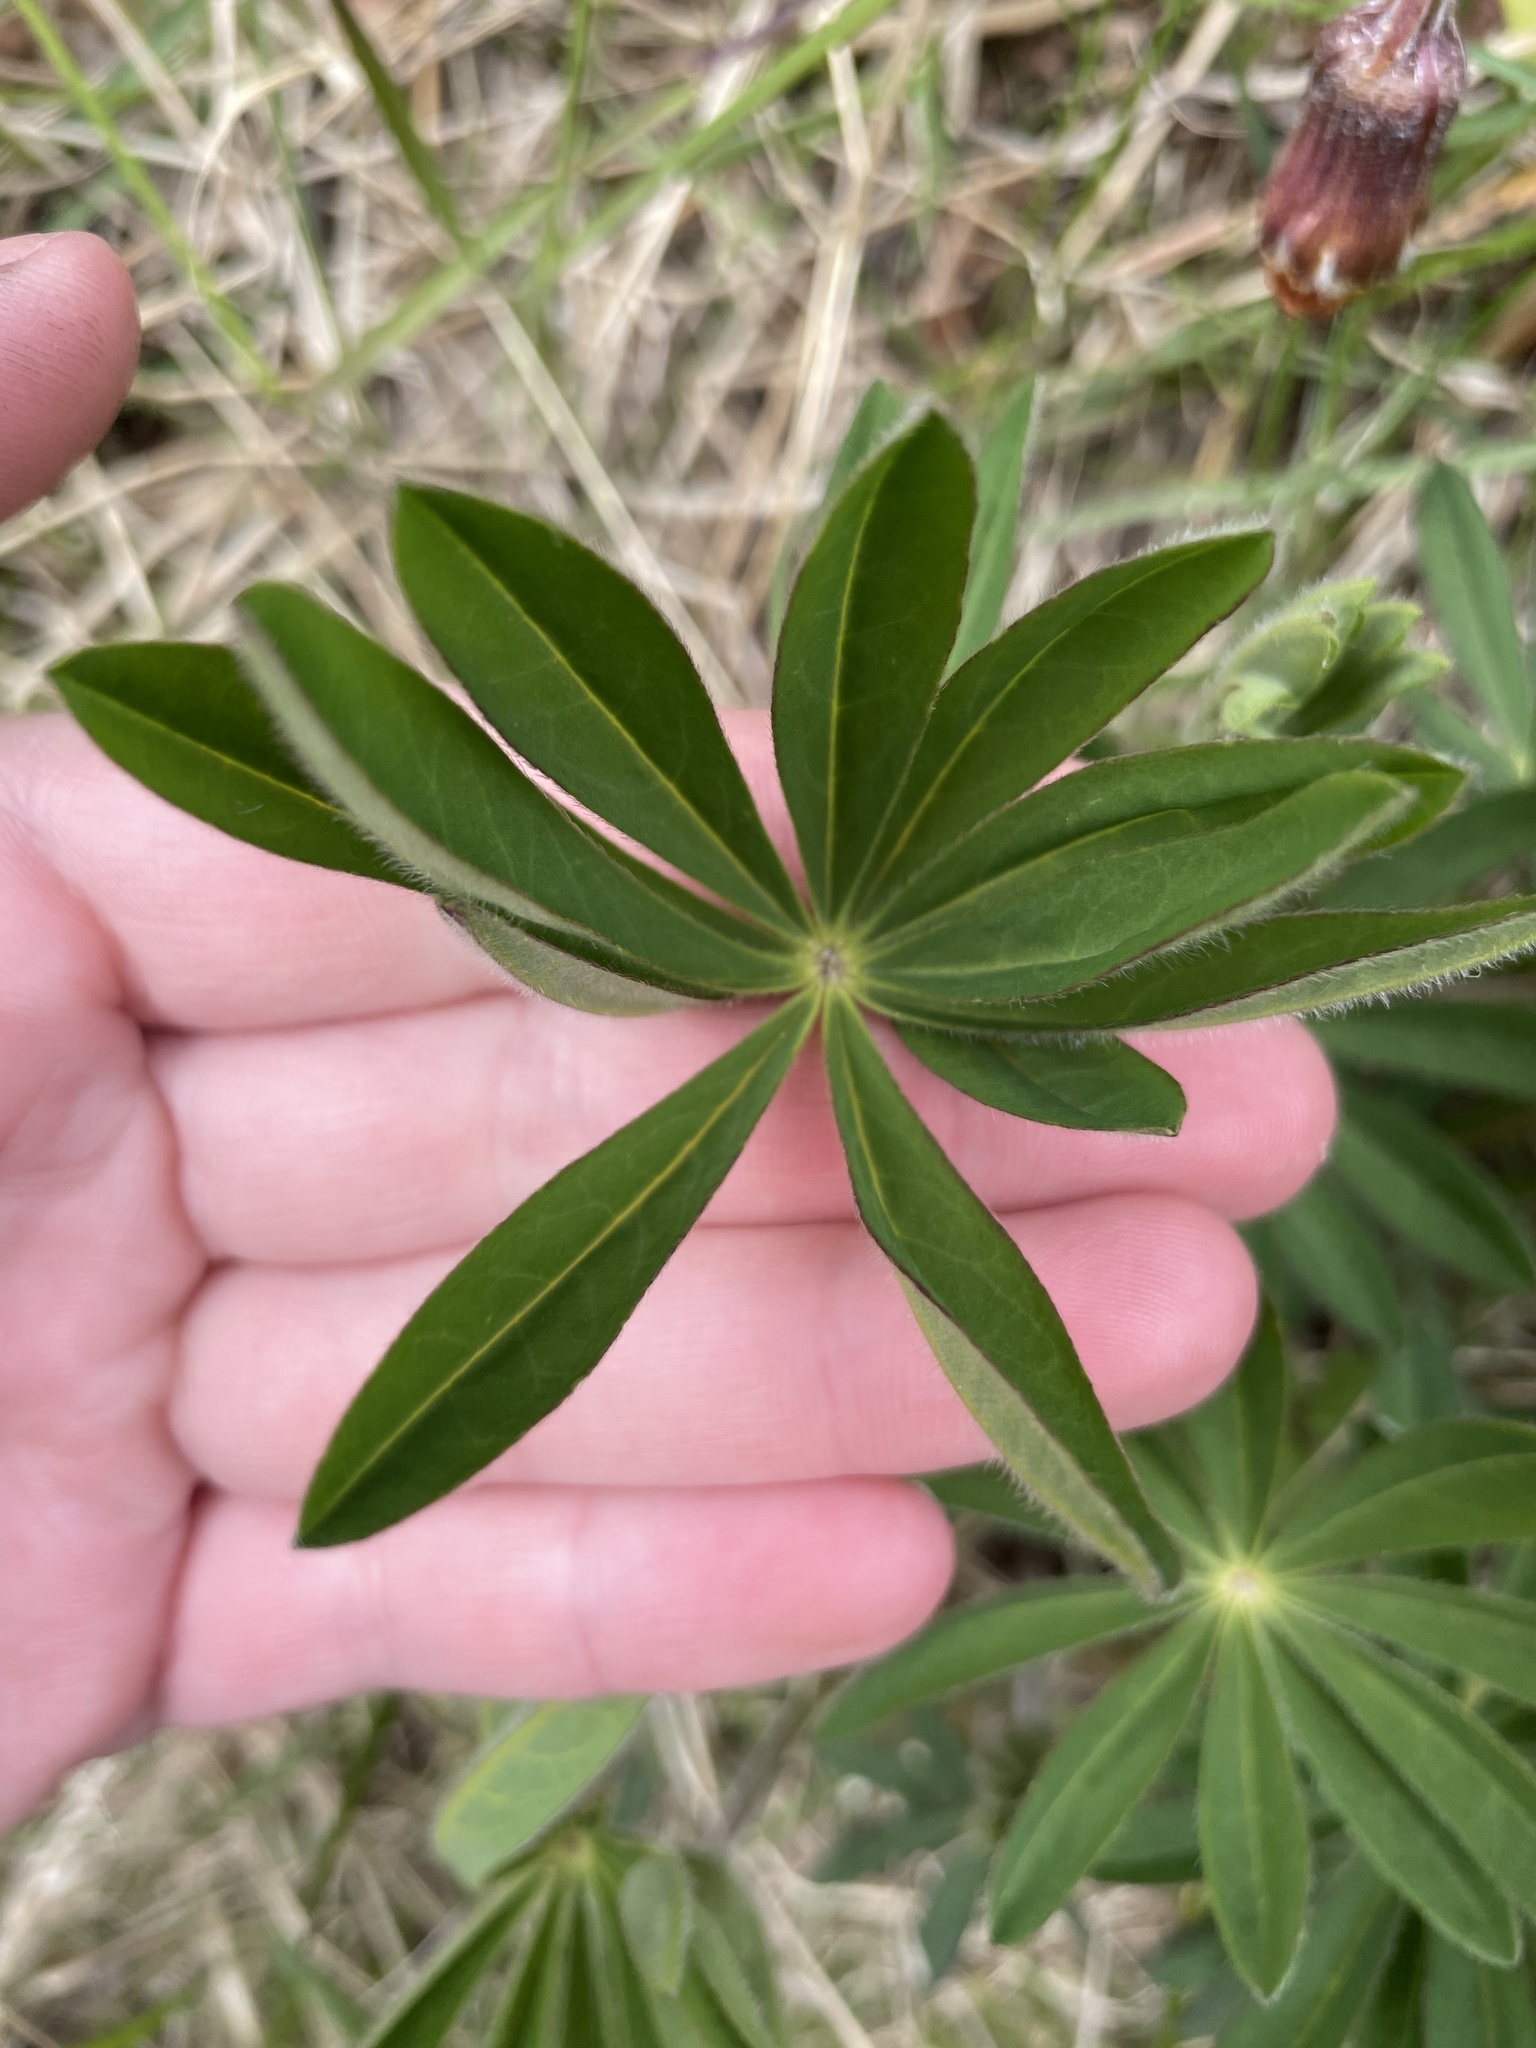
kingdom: Plantae
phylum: Tracheophyta
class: Magnoliopsida
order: Fabales
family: Fabaceae
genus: Lupinus
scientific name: Lupinus polyphyllus
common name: Garden lupin
